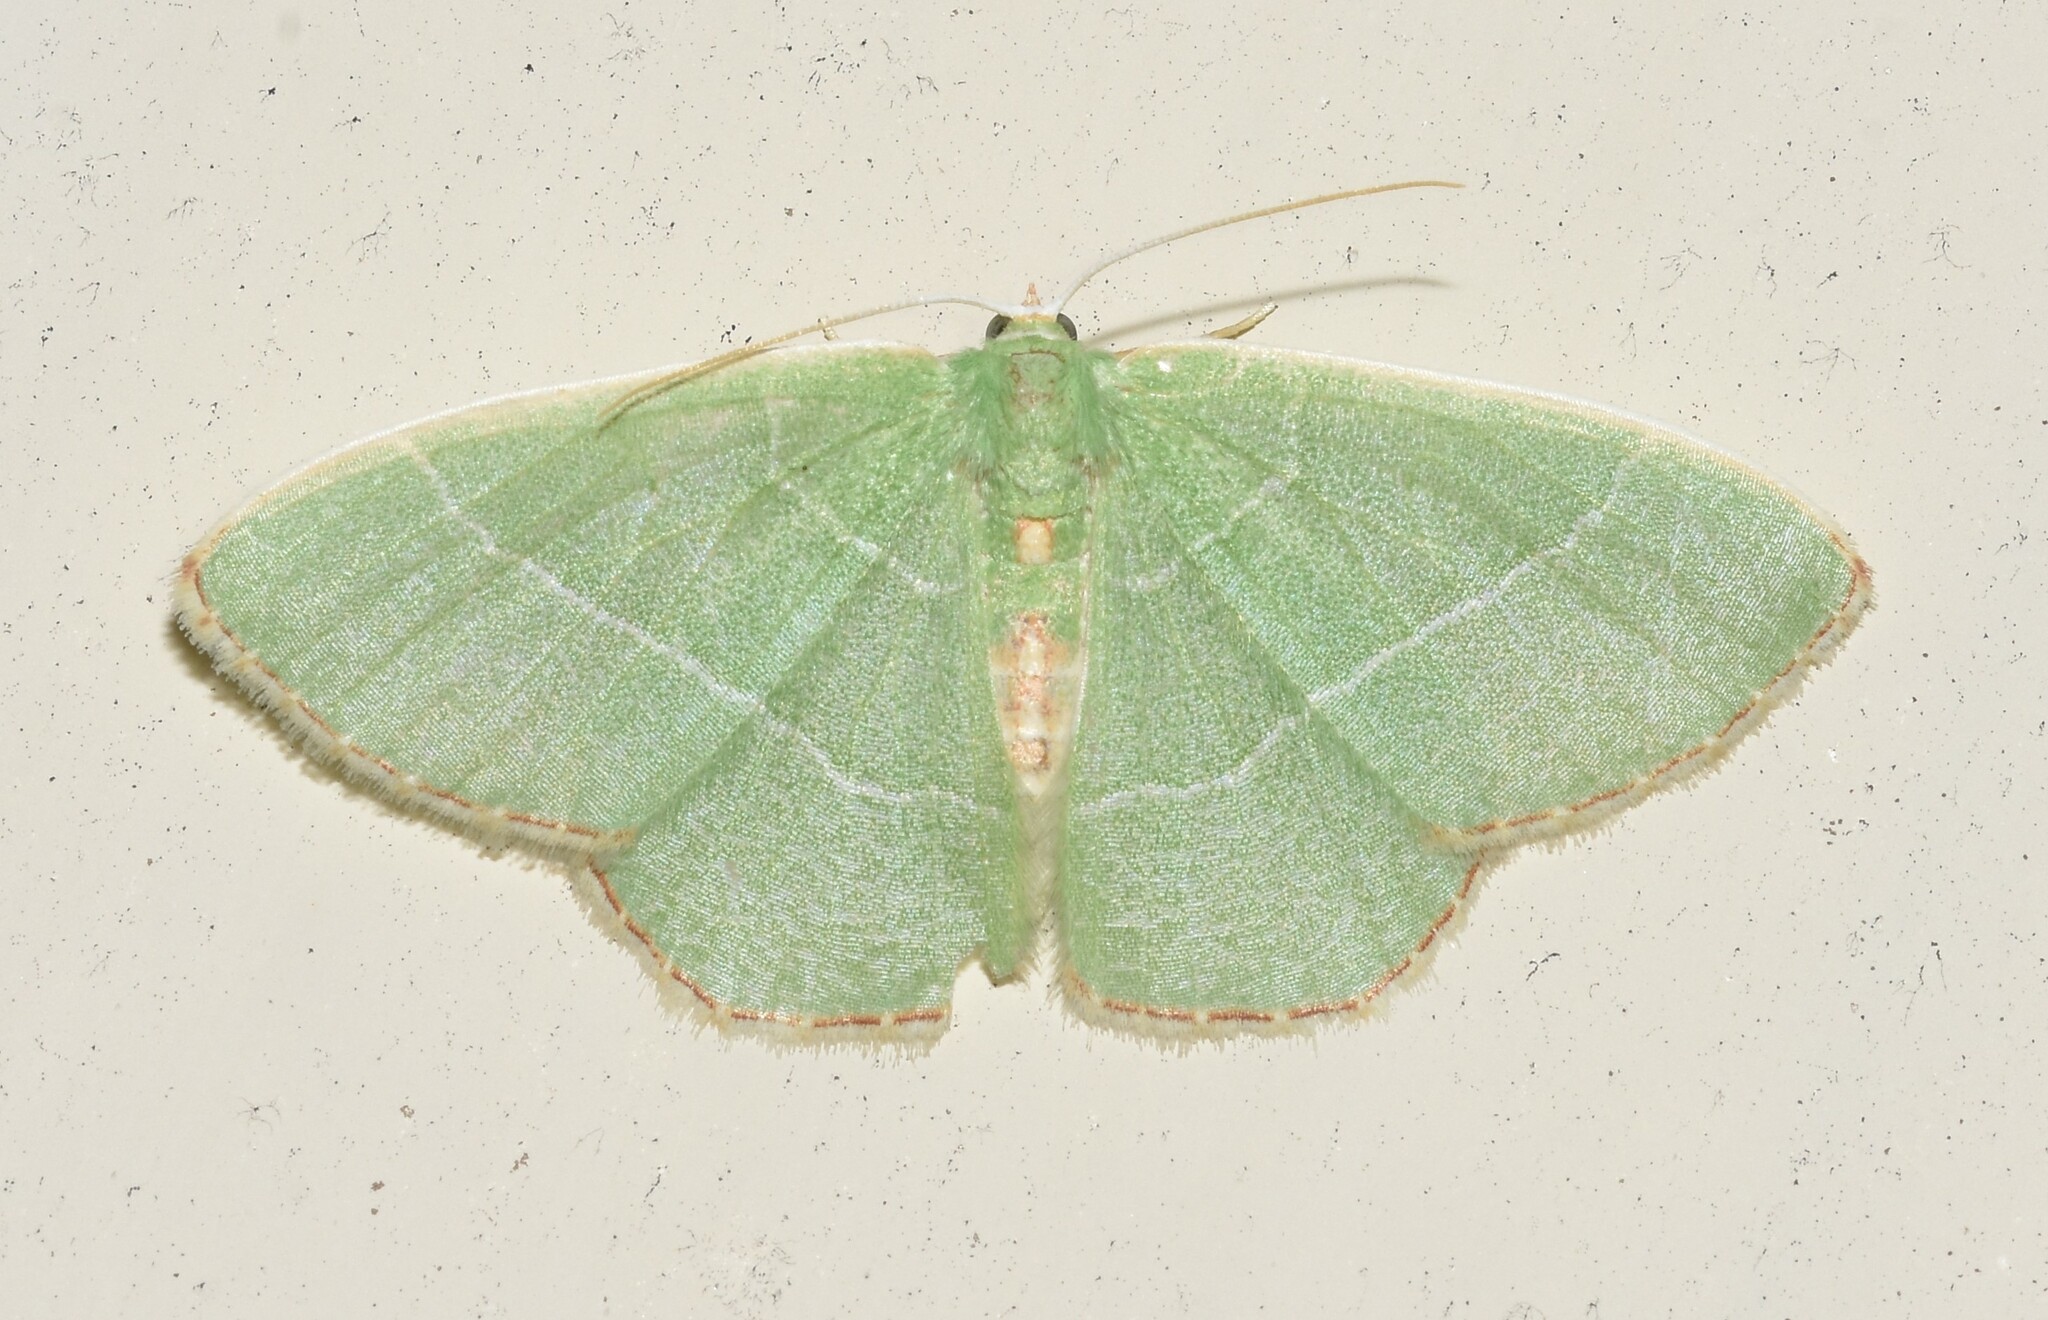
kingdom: Animalia
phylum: Arthropoda
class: Insecta
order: Lepidoptera
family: Geometridae
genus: Nemoria
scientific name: Nemoria bistriaria
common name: Red-fringed emerald
